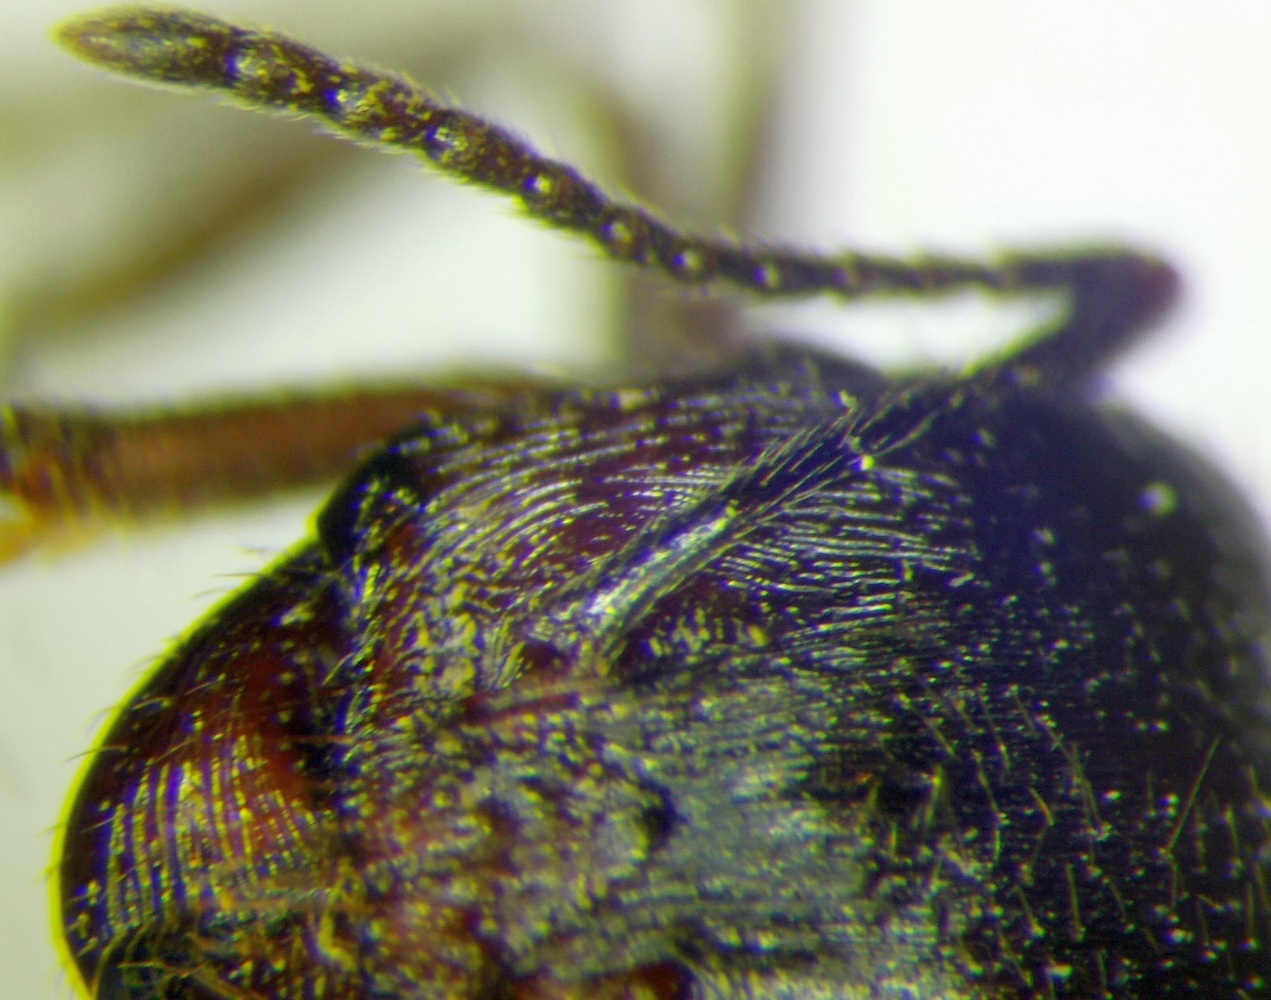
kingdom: Animalia
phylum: Arthropoda
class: Insecta
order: Hymenoptera
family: Formicidae
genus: Messor
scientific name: Messor structor
